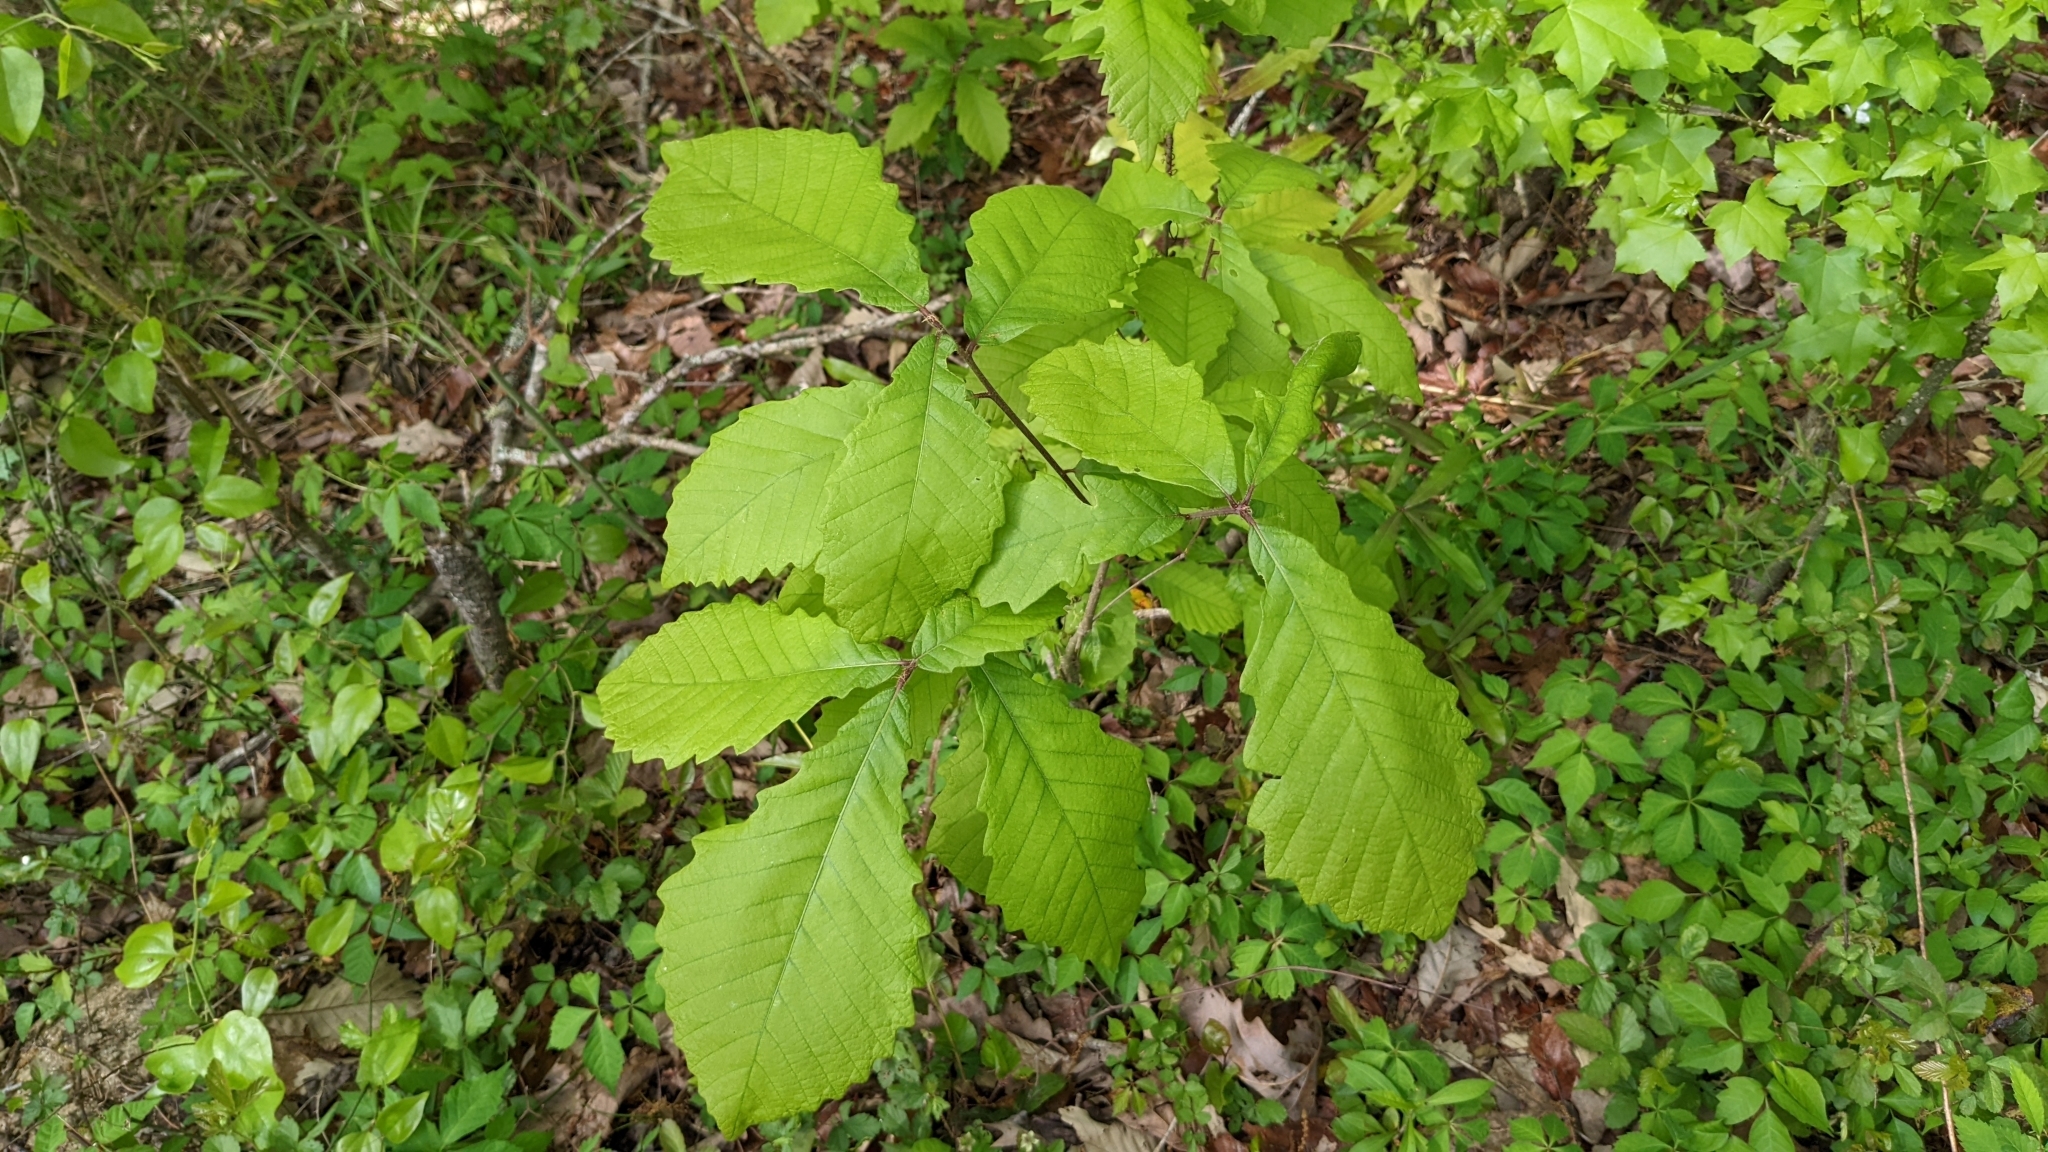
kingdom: Plantae
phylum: Tracheophyta
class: Magnoliopsida
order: Fagales
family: Fagaceae
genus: Quercus
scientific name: Quercus michauxii
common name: Swamp chestnut oak
